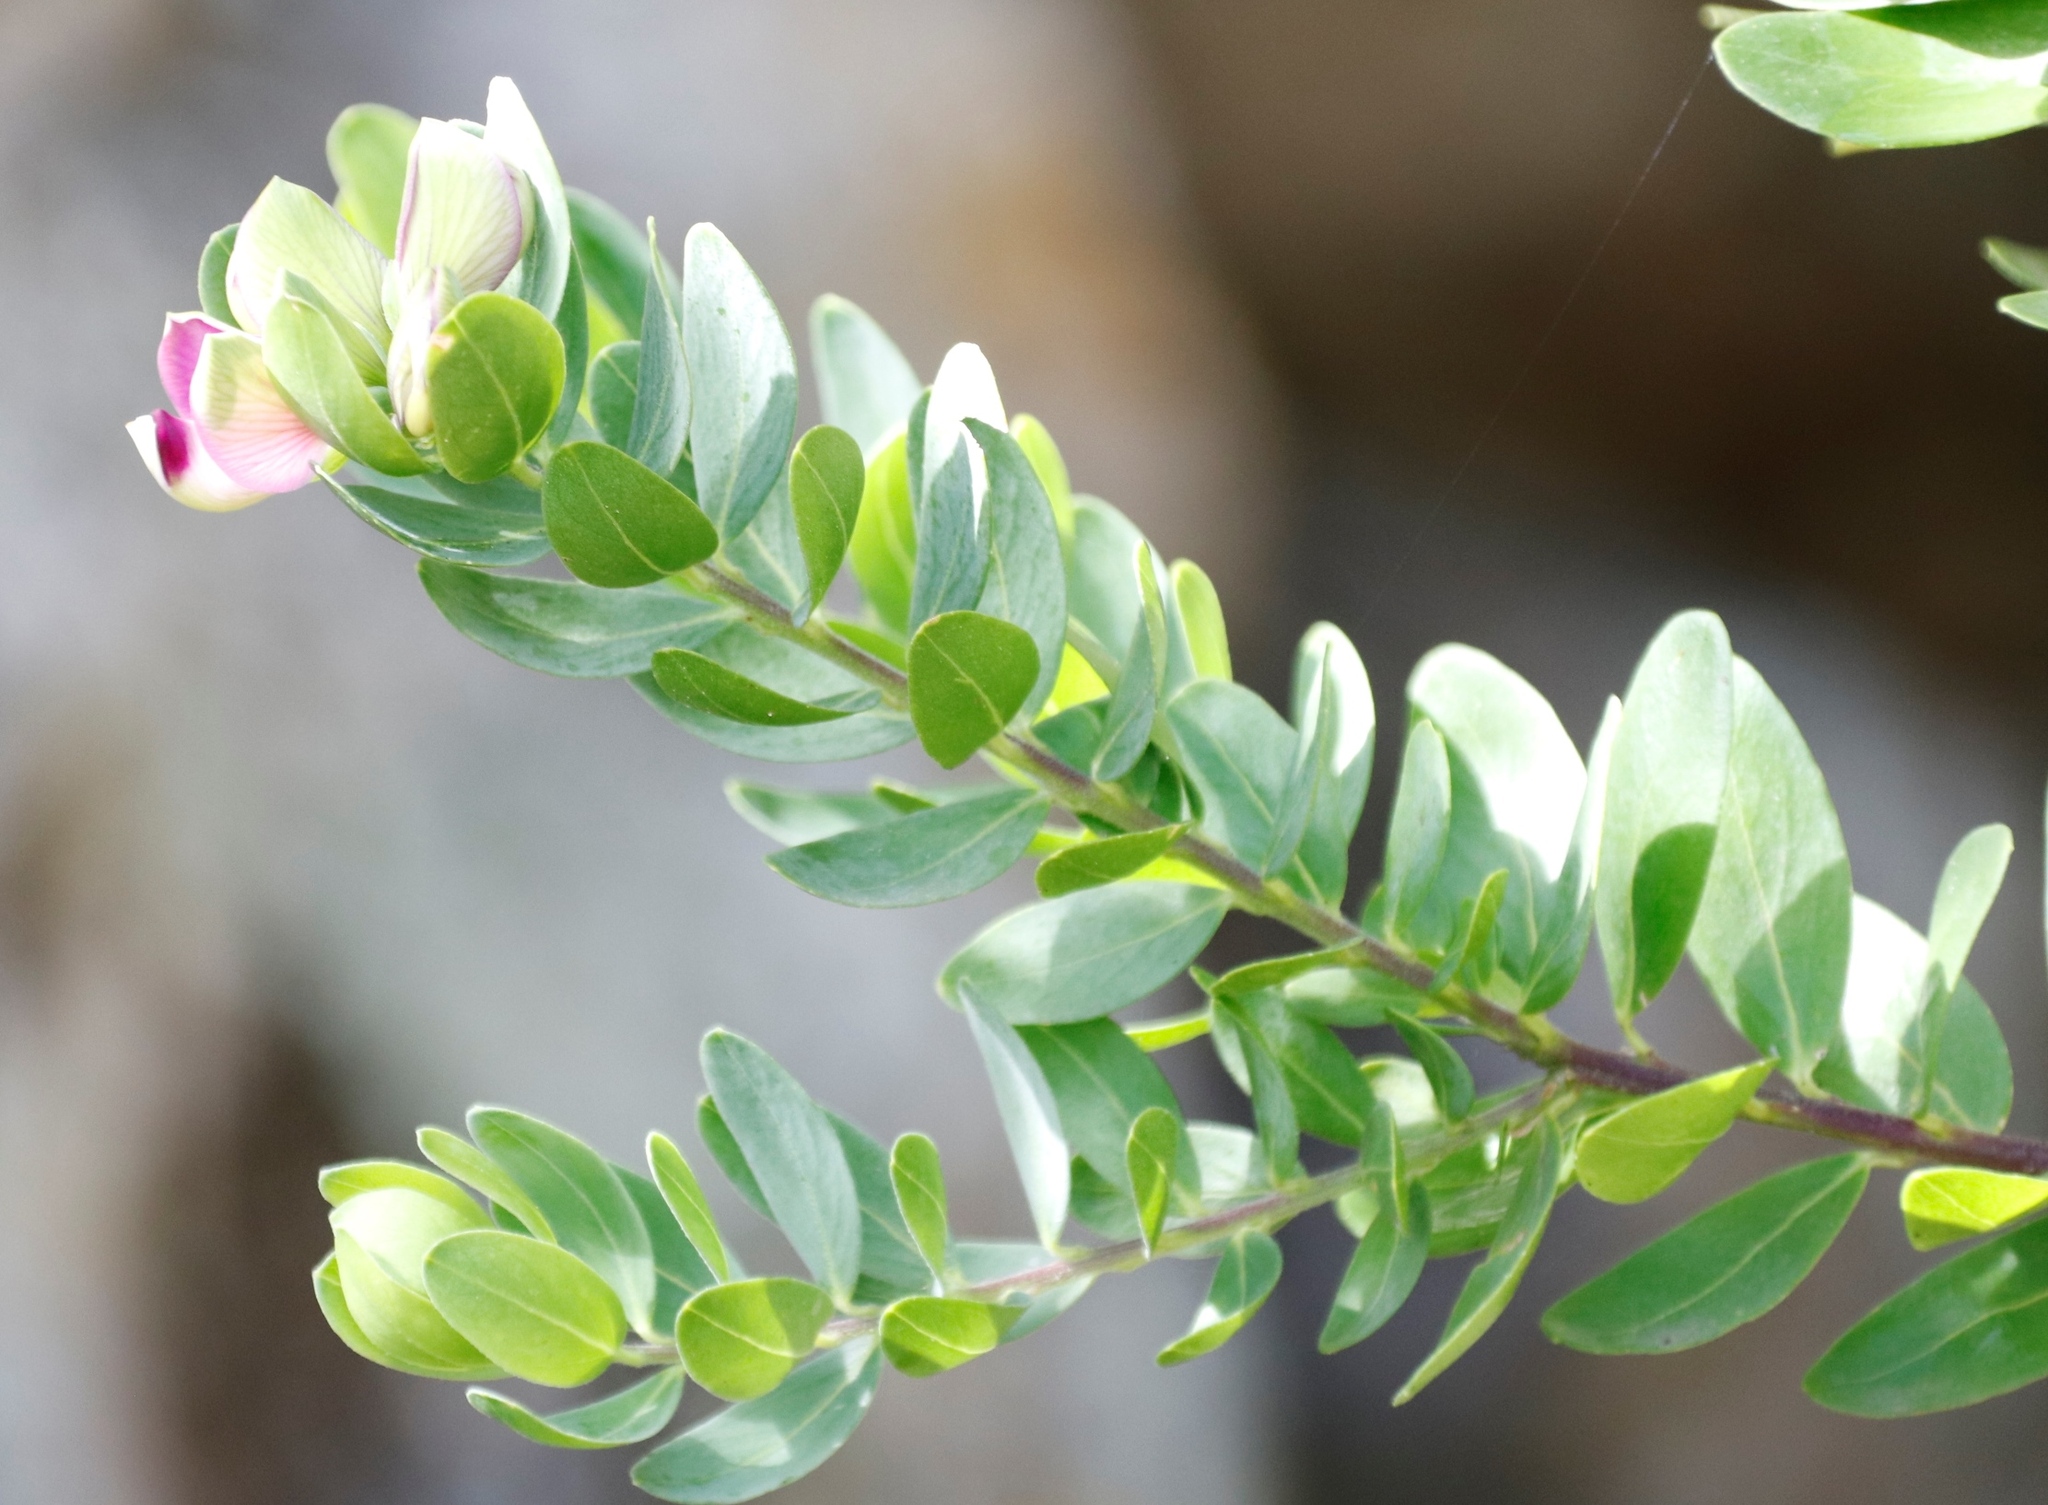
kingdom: Plantae
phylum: Tracheophyta
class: Magnoliopsida
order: Fabales
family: Polygalaceae
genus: Polygala
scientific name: Polygala myrtifolia
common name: Myrtle-leaf milkwort
